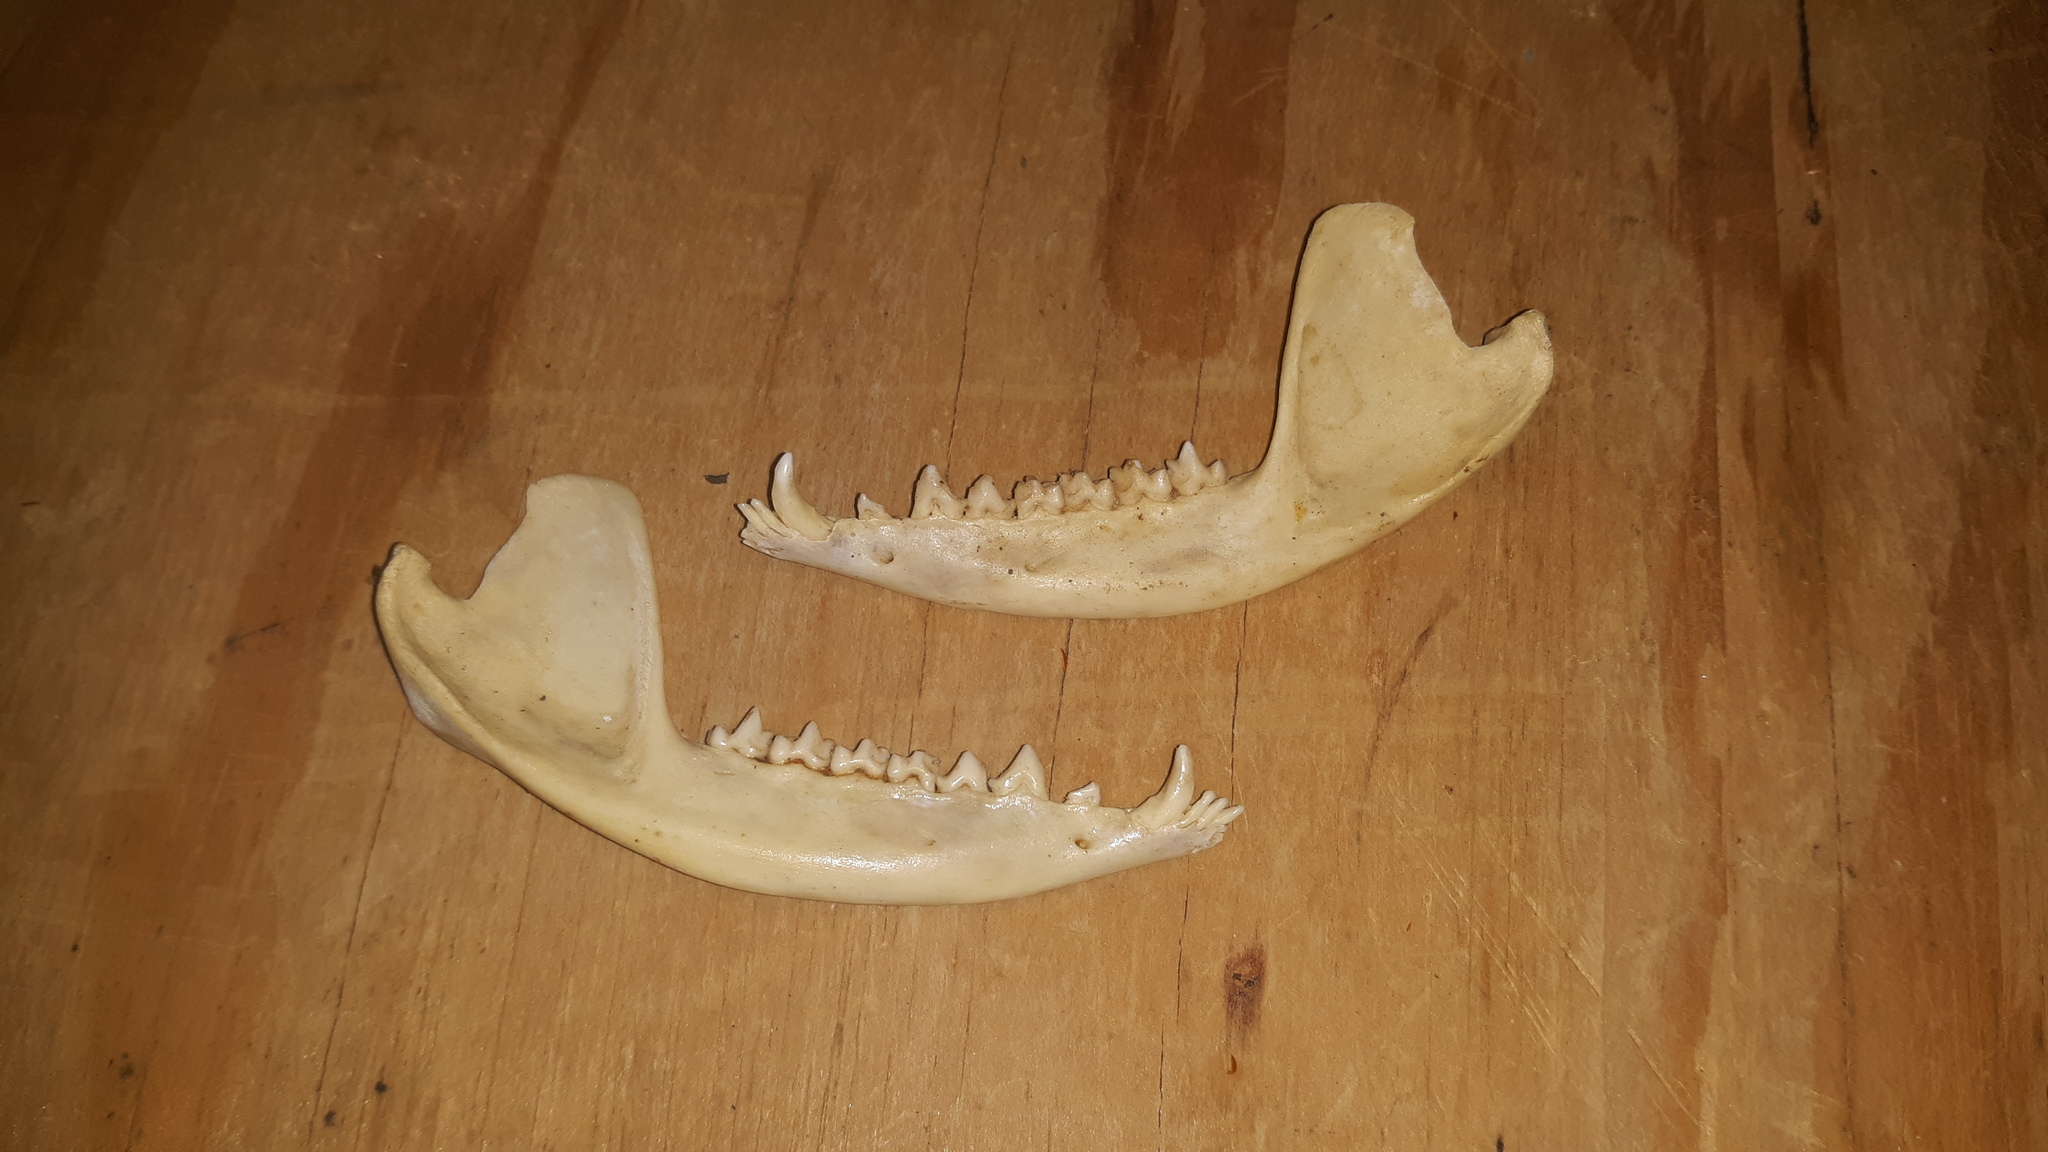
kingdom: Animalia
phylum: Chordata
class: Mammalia
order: Didelphimorphia
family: Didelphidae
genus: Didelphis
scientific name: Didelphis virginiana
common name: Virginia opossum
